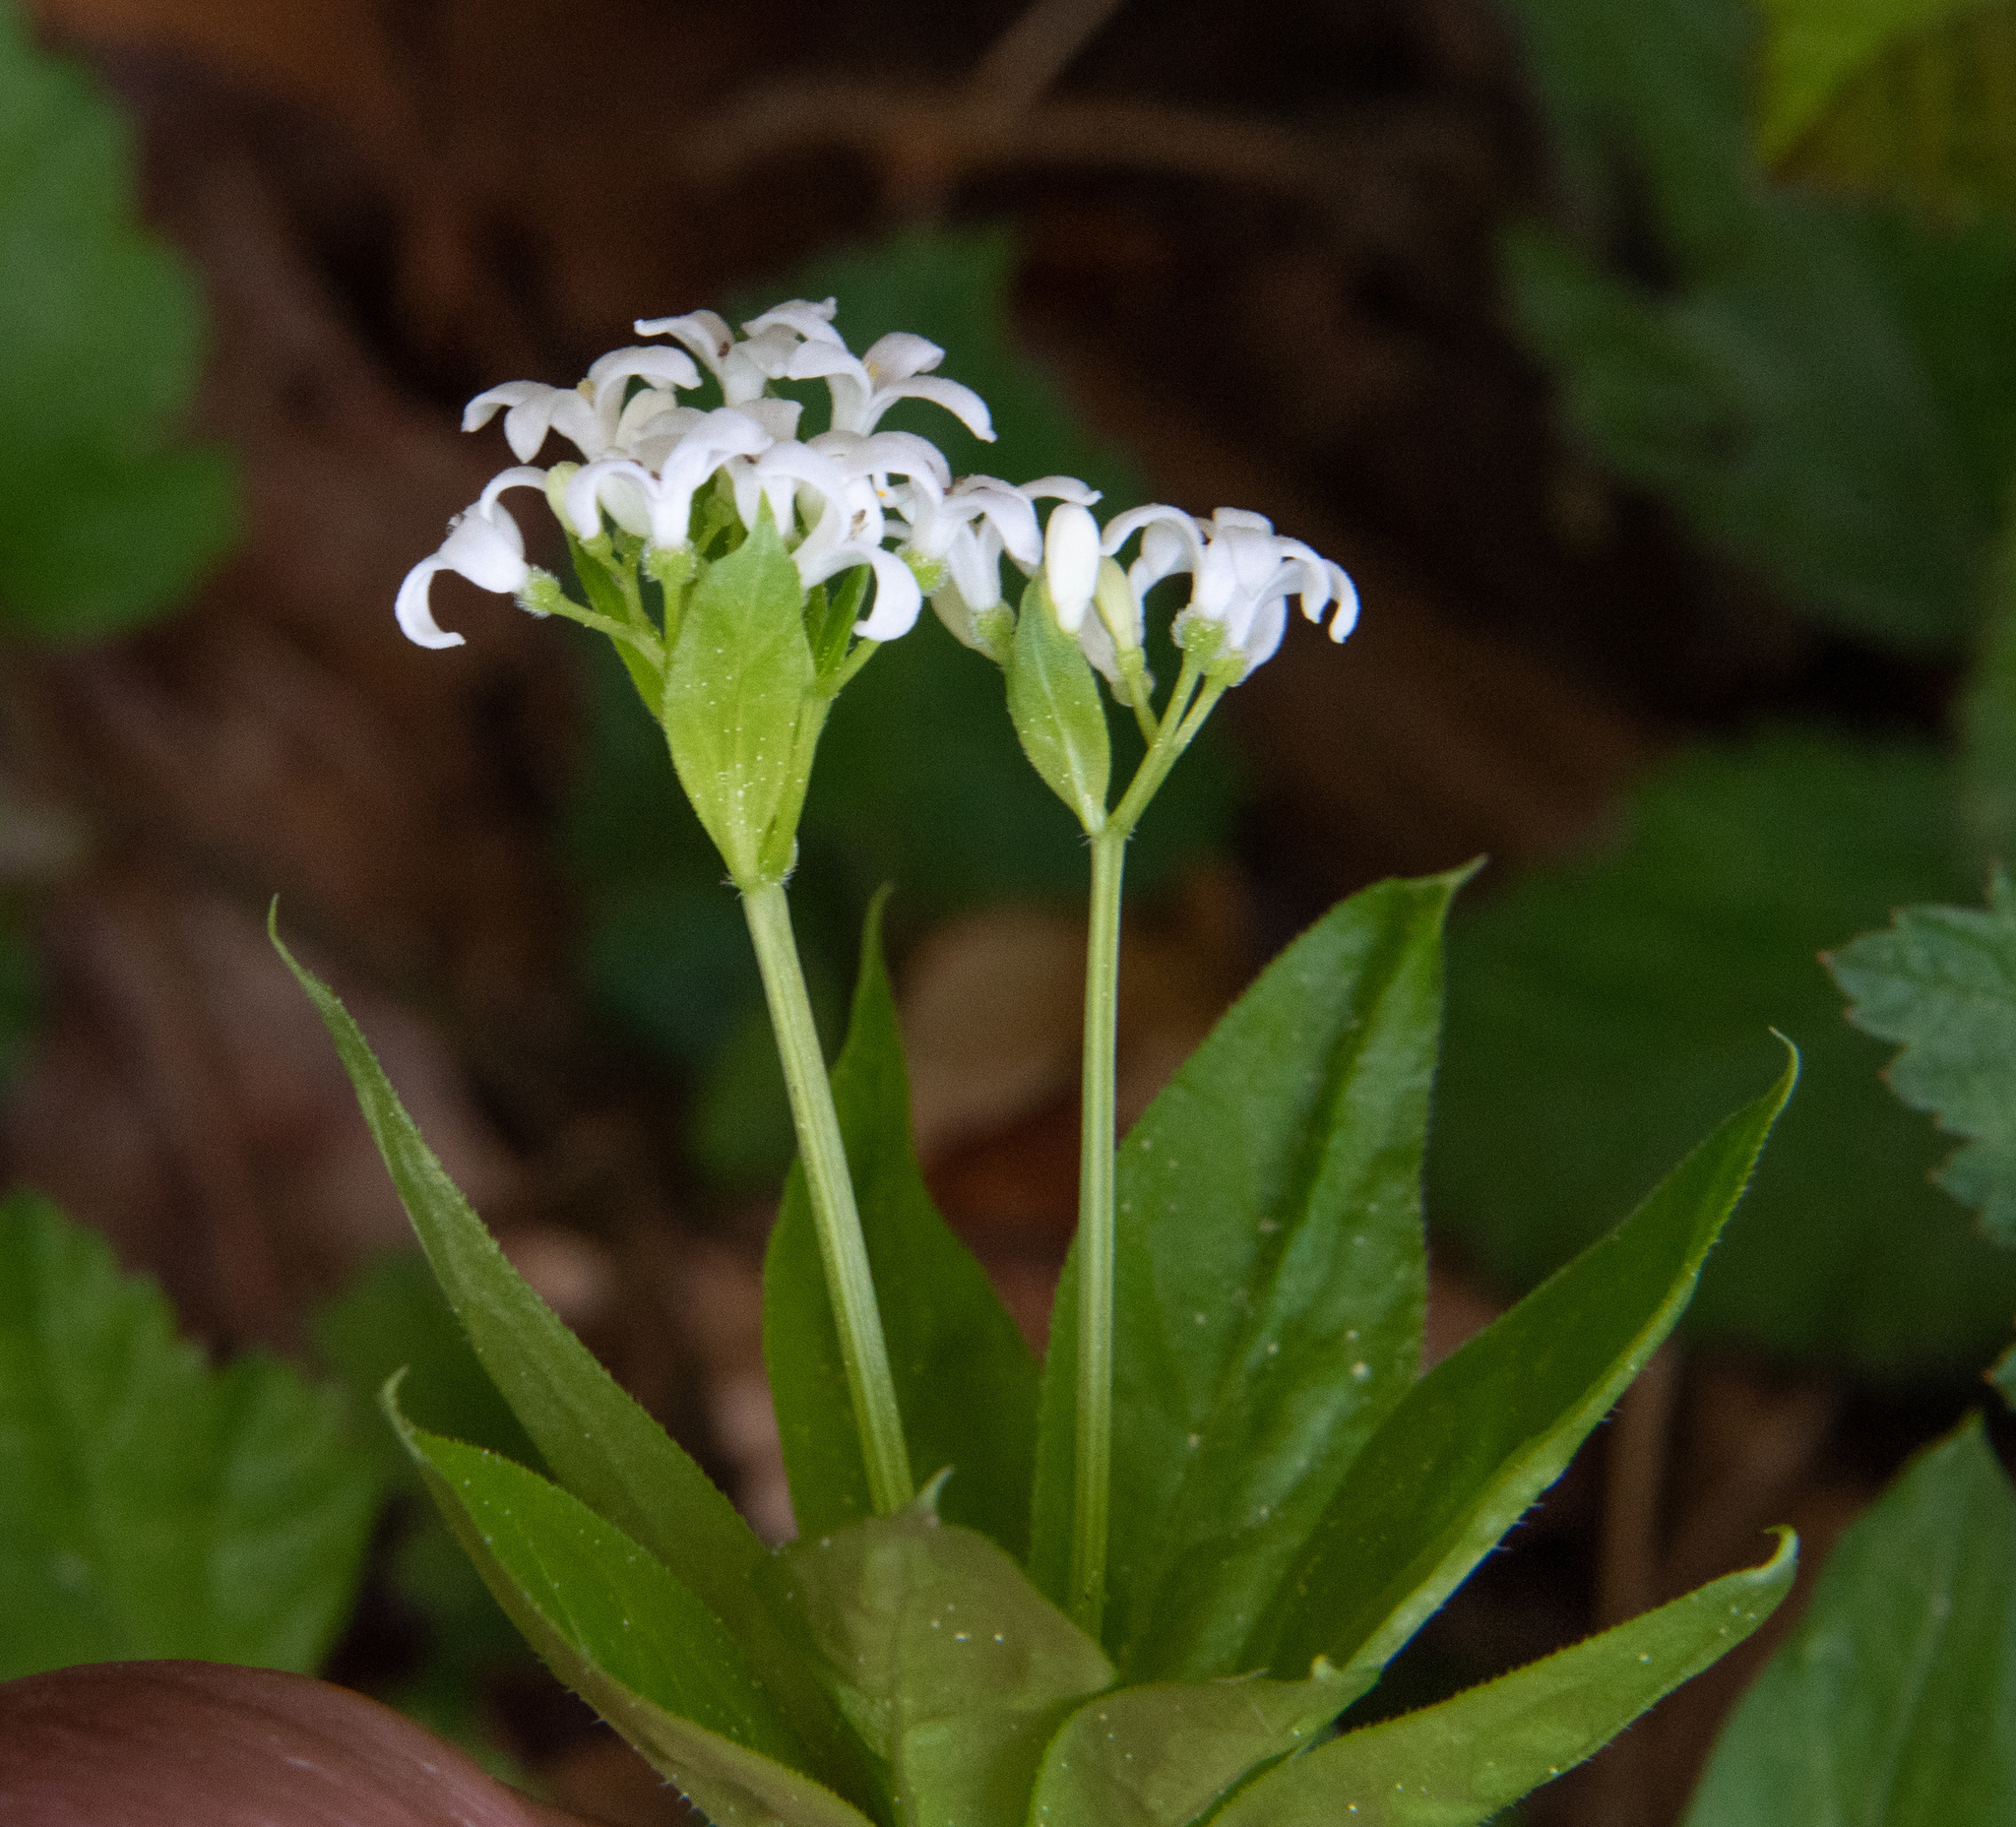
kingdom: Plantae
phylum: Tracheophyta
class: Magnoliopsida
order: Gentianales
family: Rubiaceae
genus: Galium
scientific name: Galium odoratum
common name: Sweet woodruff
